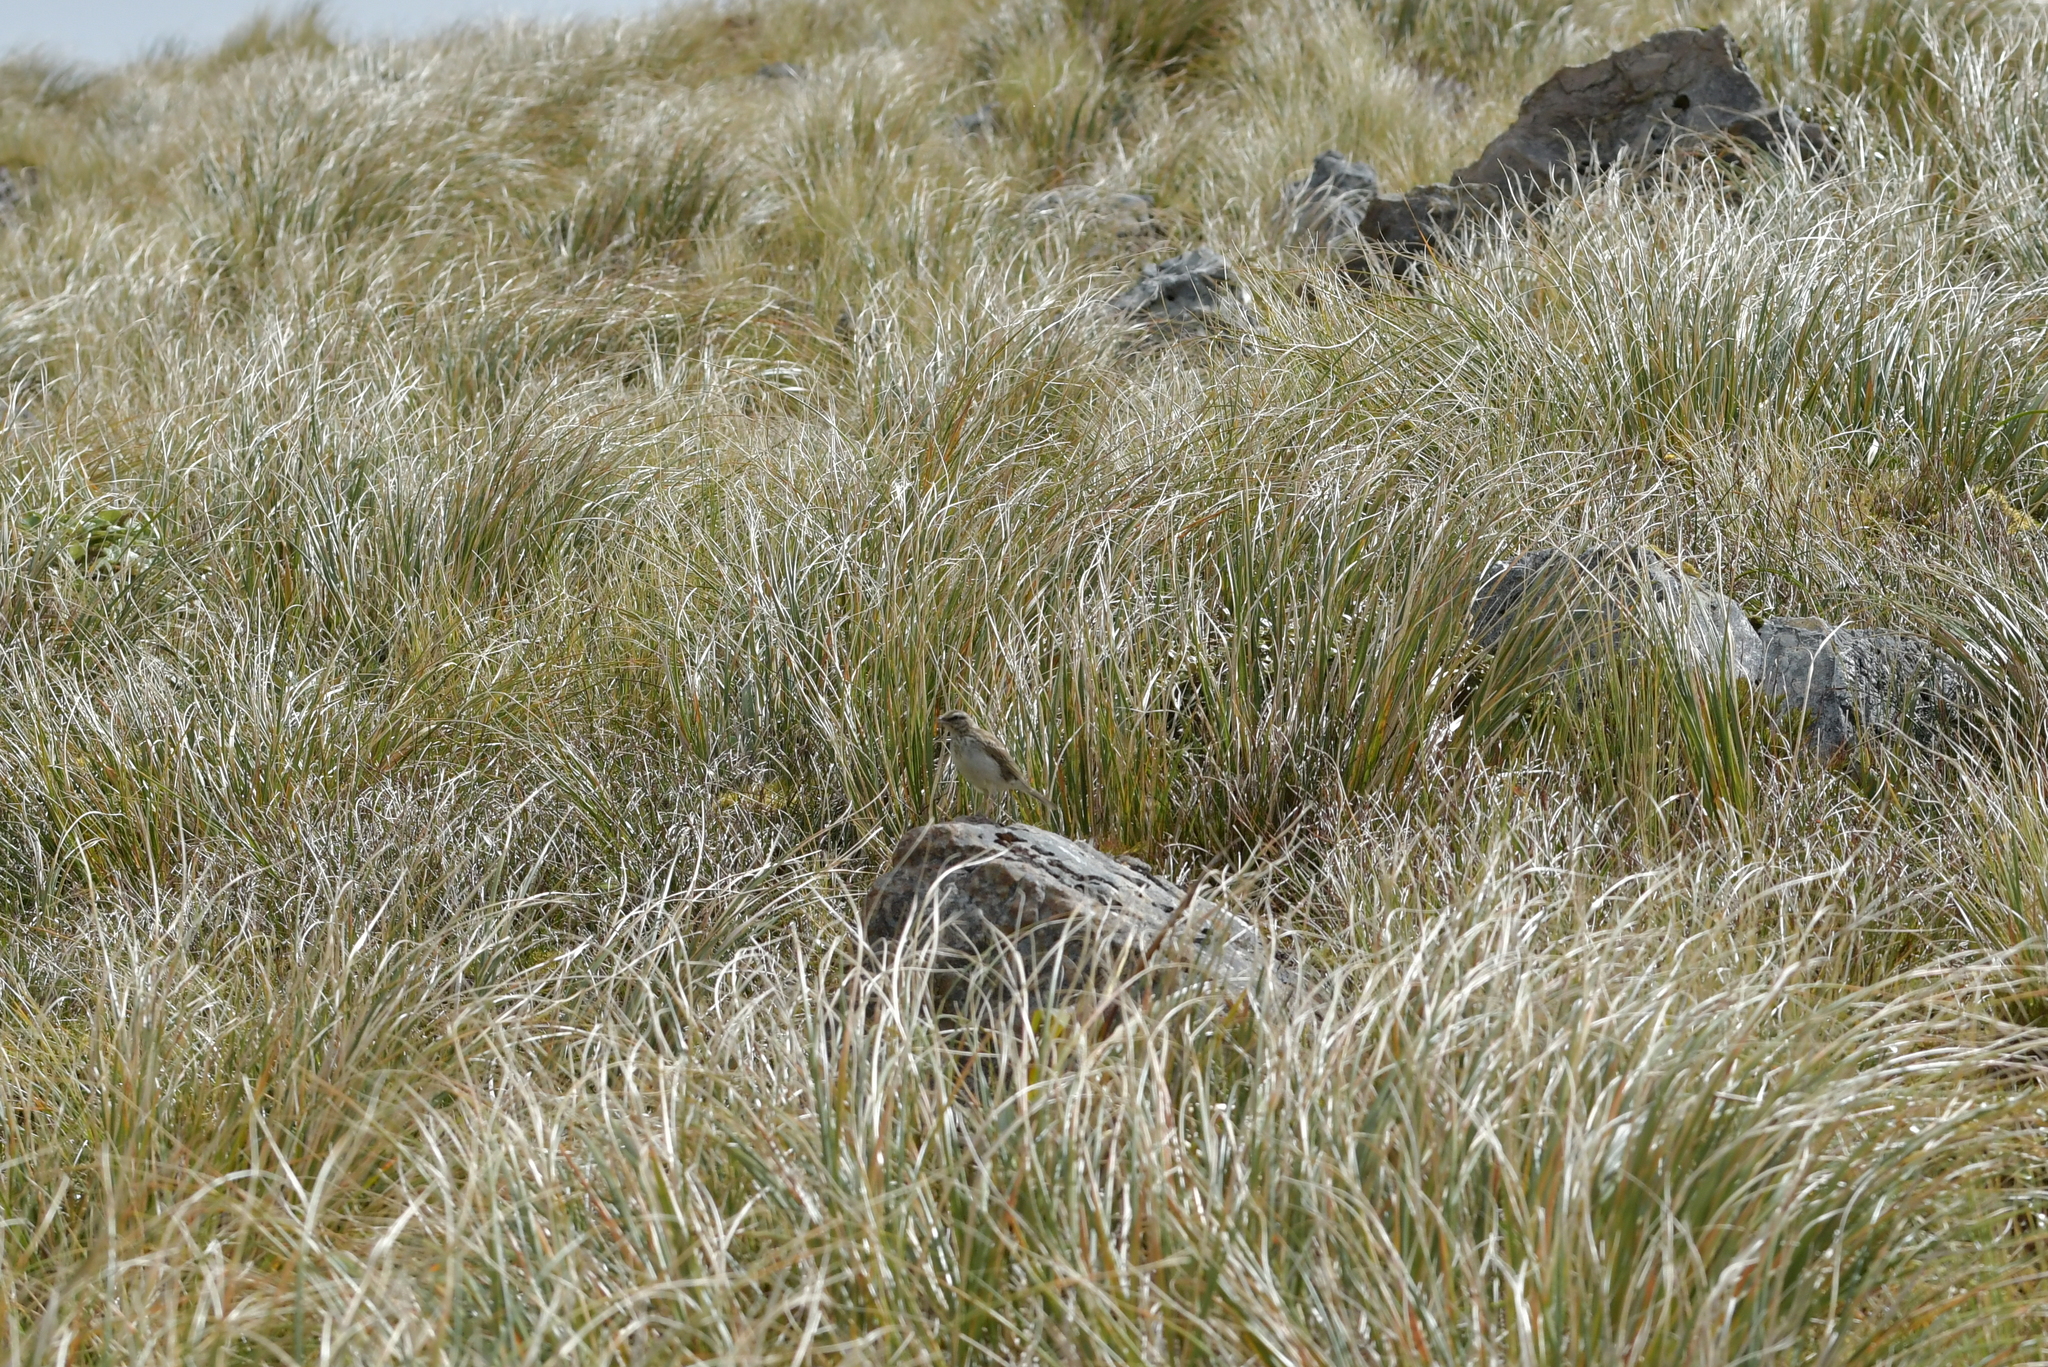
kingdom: Animalia
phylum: Chordata
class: Aves
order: Passeriformes
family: Motacillidae
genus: Anthus
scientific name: Anthus novaeseelandiae
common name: New zealand pipit
